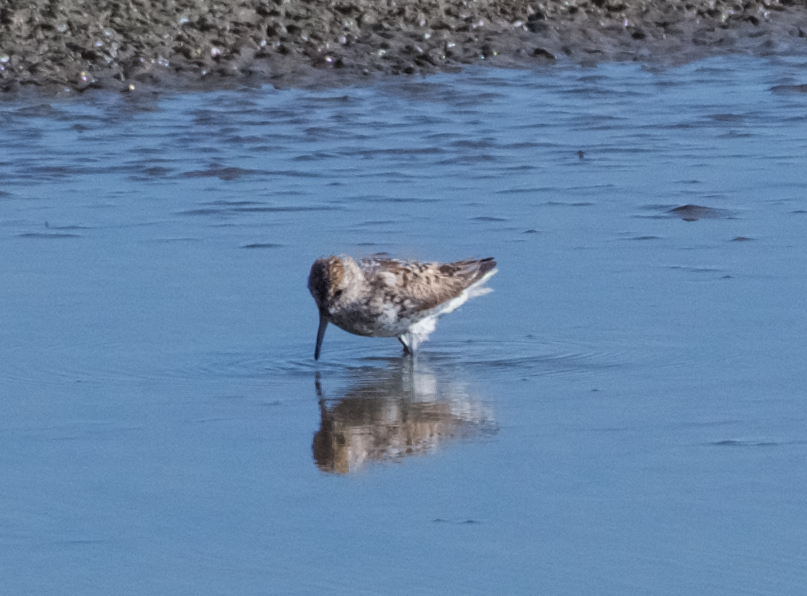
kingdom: Animalia
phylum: Chordata
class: Aves
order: Charadriiformes
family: Scolopacidae
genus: Calidris
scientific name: Calidris mauri
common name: Western sandpiper
